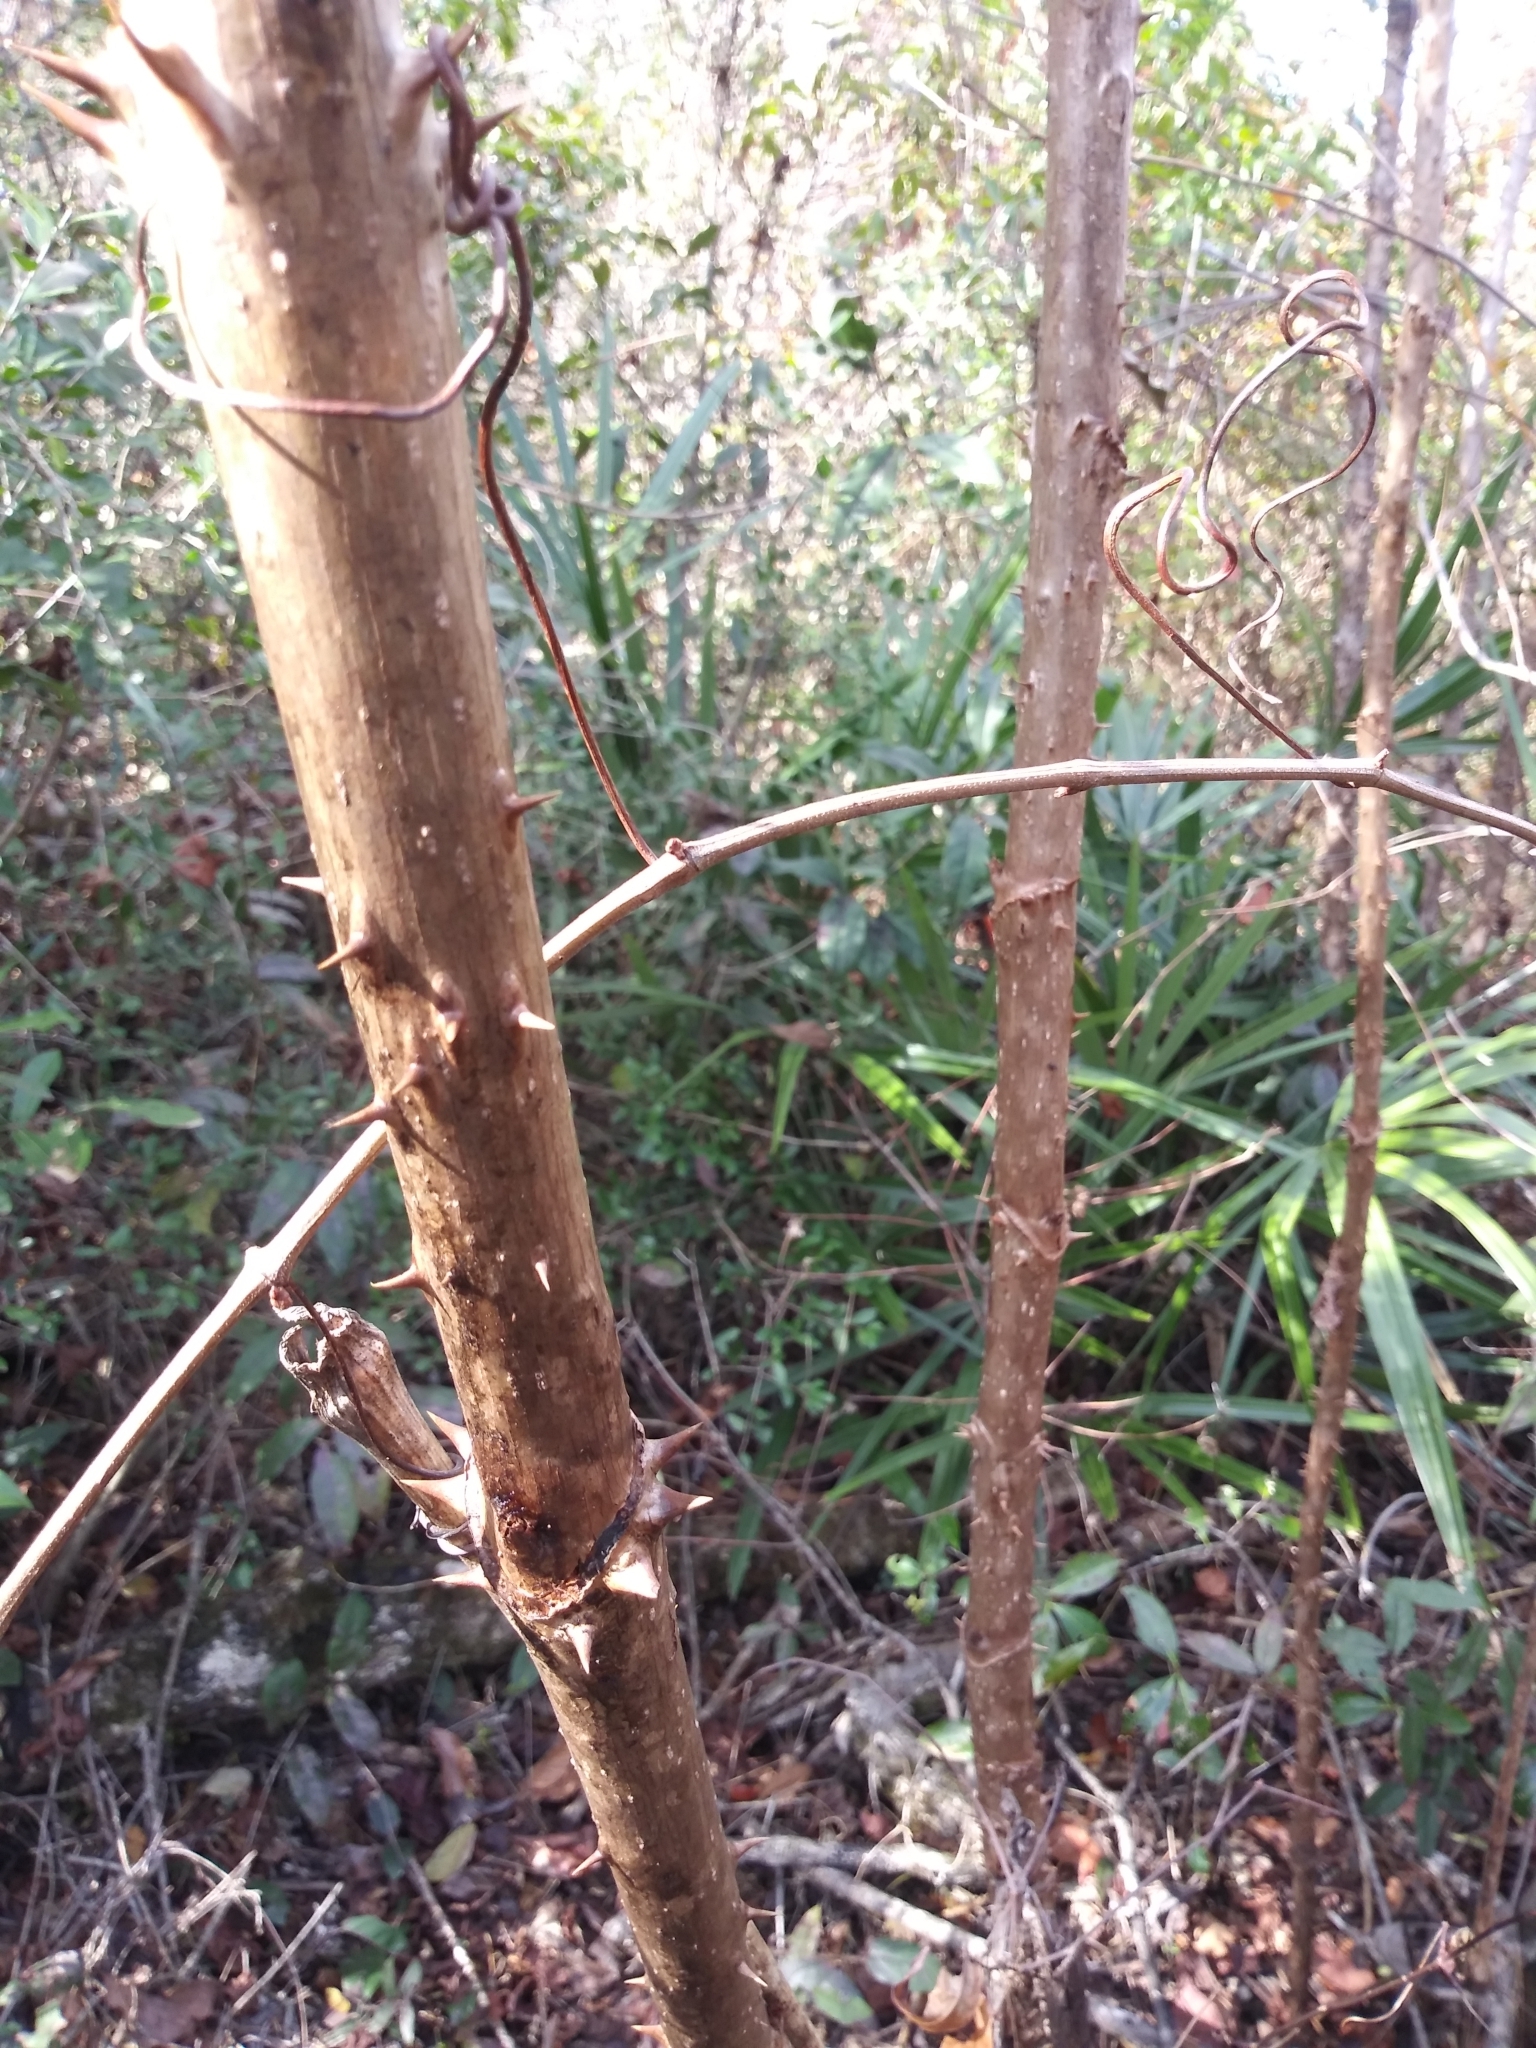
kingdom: Plantae
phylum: Tracheophyta
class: Magnoliopsida
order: Apiales
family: Araliaceae
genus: Aralia
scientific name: Aralia spinosa
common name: Hercules'-club
